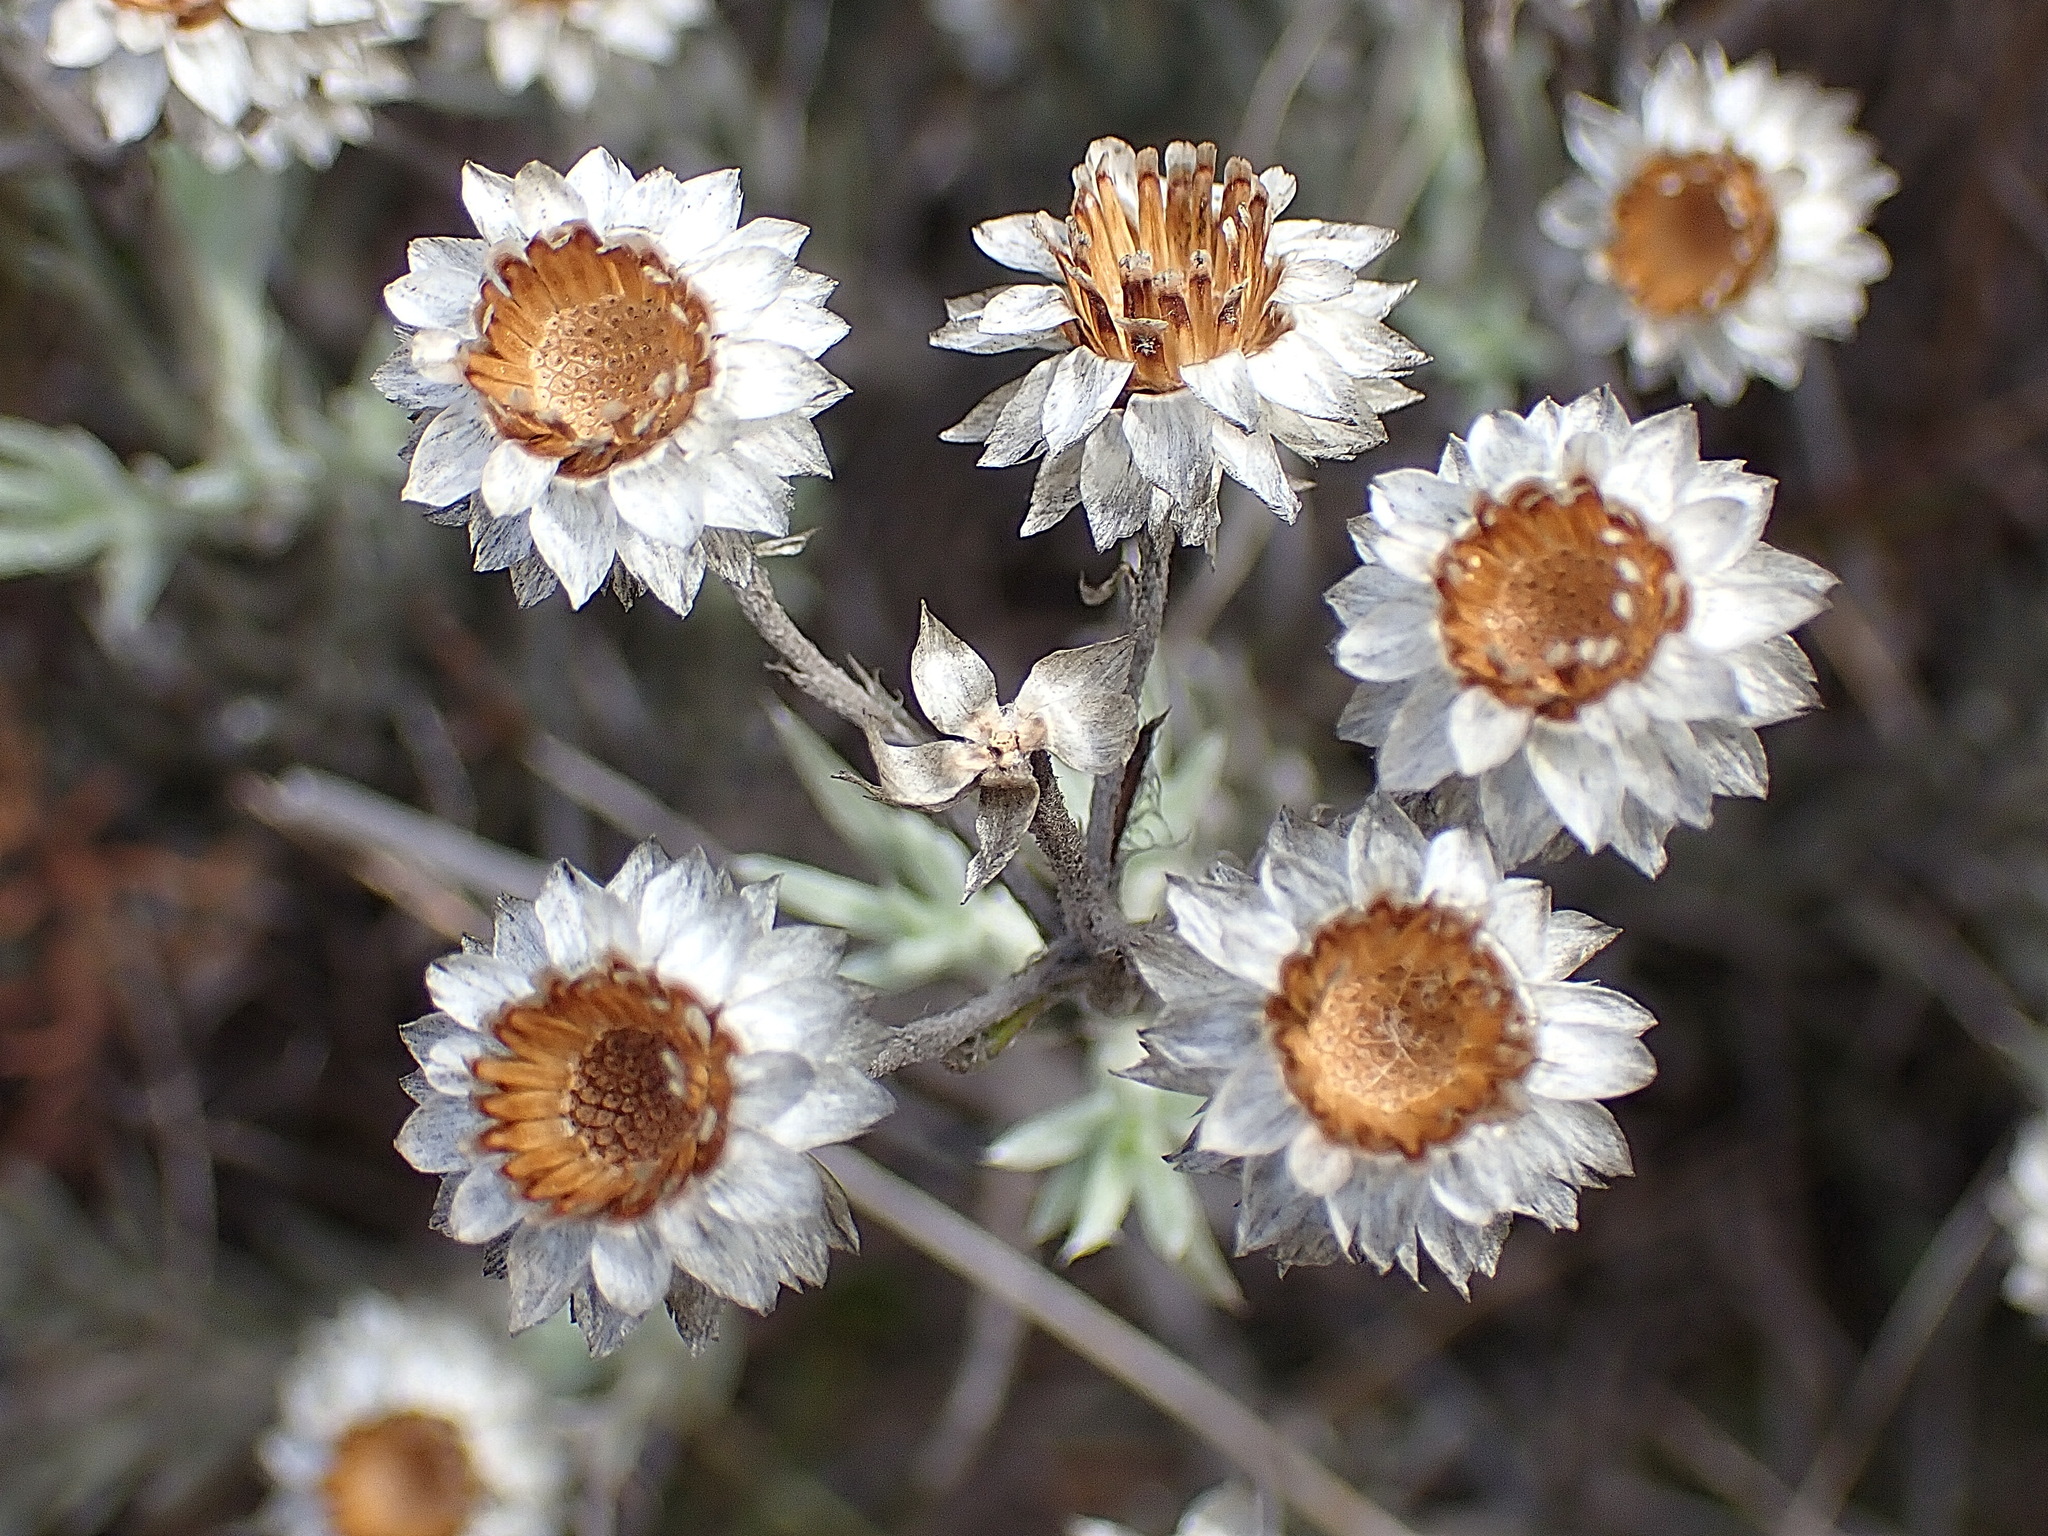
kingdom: Plantae
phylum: Tracheophyta
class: Magnoliopsida
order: Asterales
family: Asteraceae
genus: Achyranthemum
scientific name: Achyranthemum paniculatum
